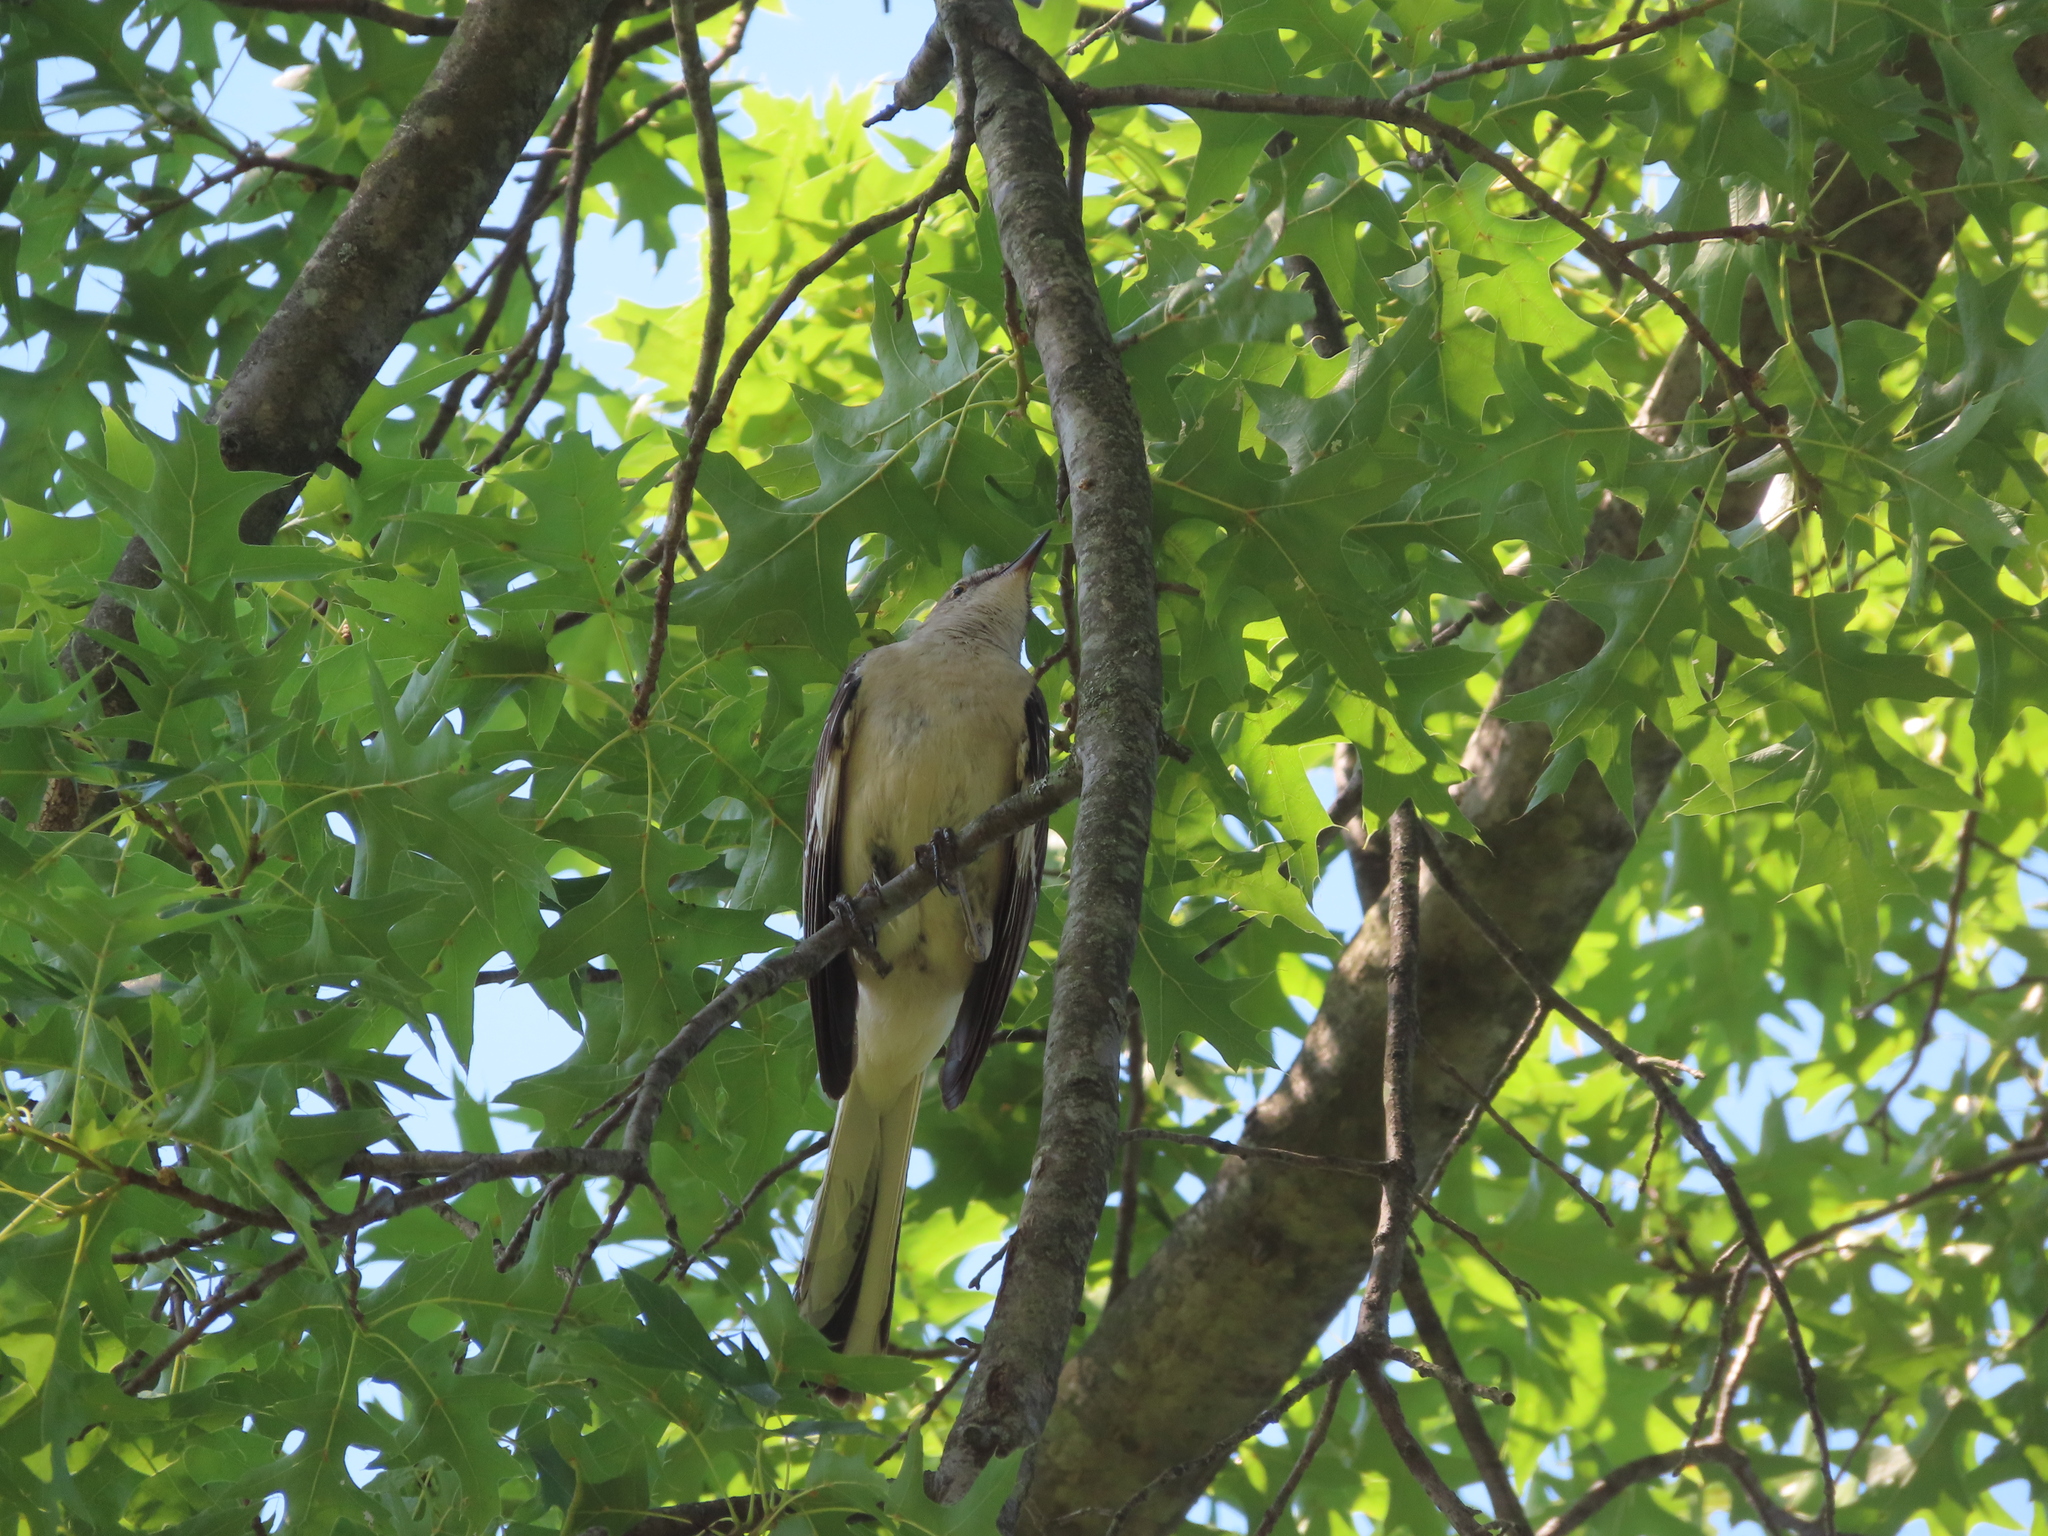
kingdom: Animalia
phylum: Chordata
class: Aves
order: Passeriformes
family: Mimidae
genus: Mimus
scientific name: Mimus polyglottos
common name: Northern mockingbird
